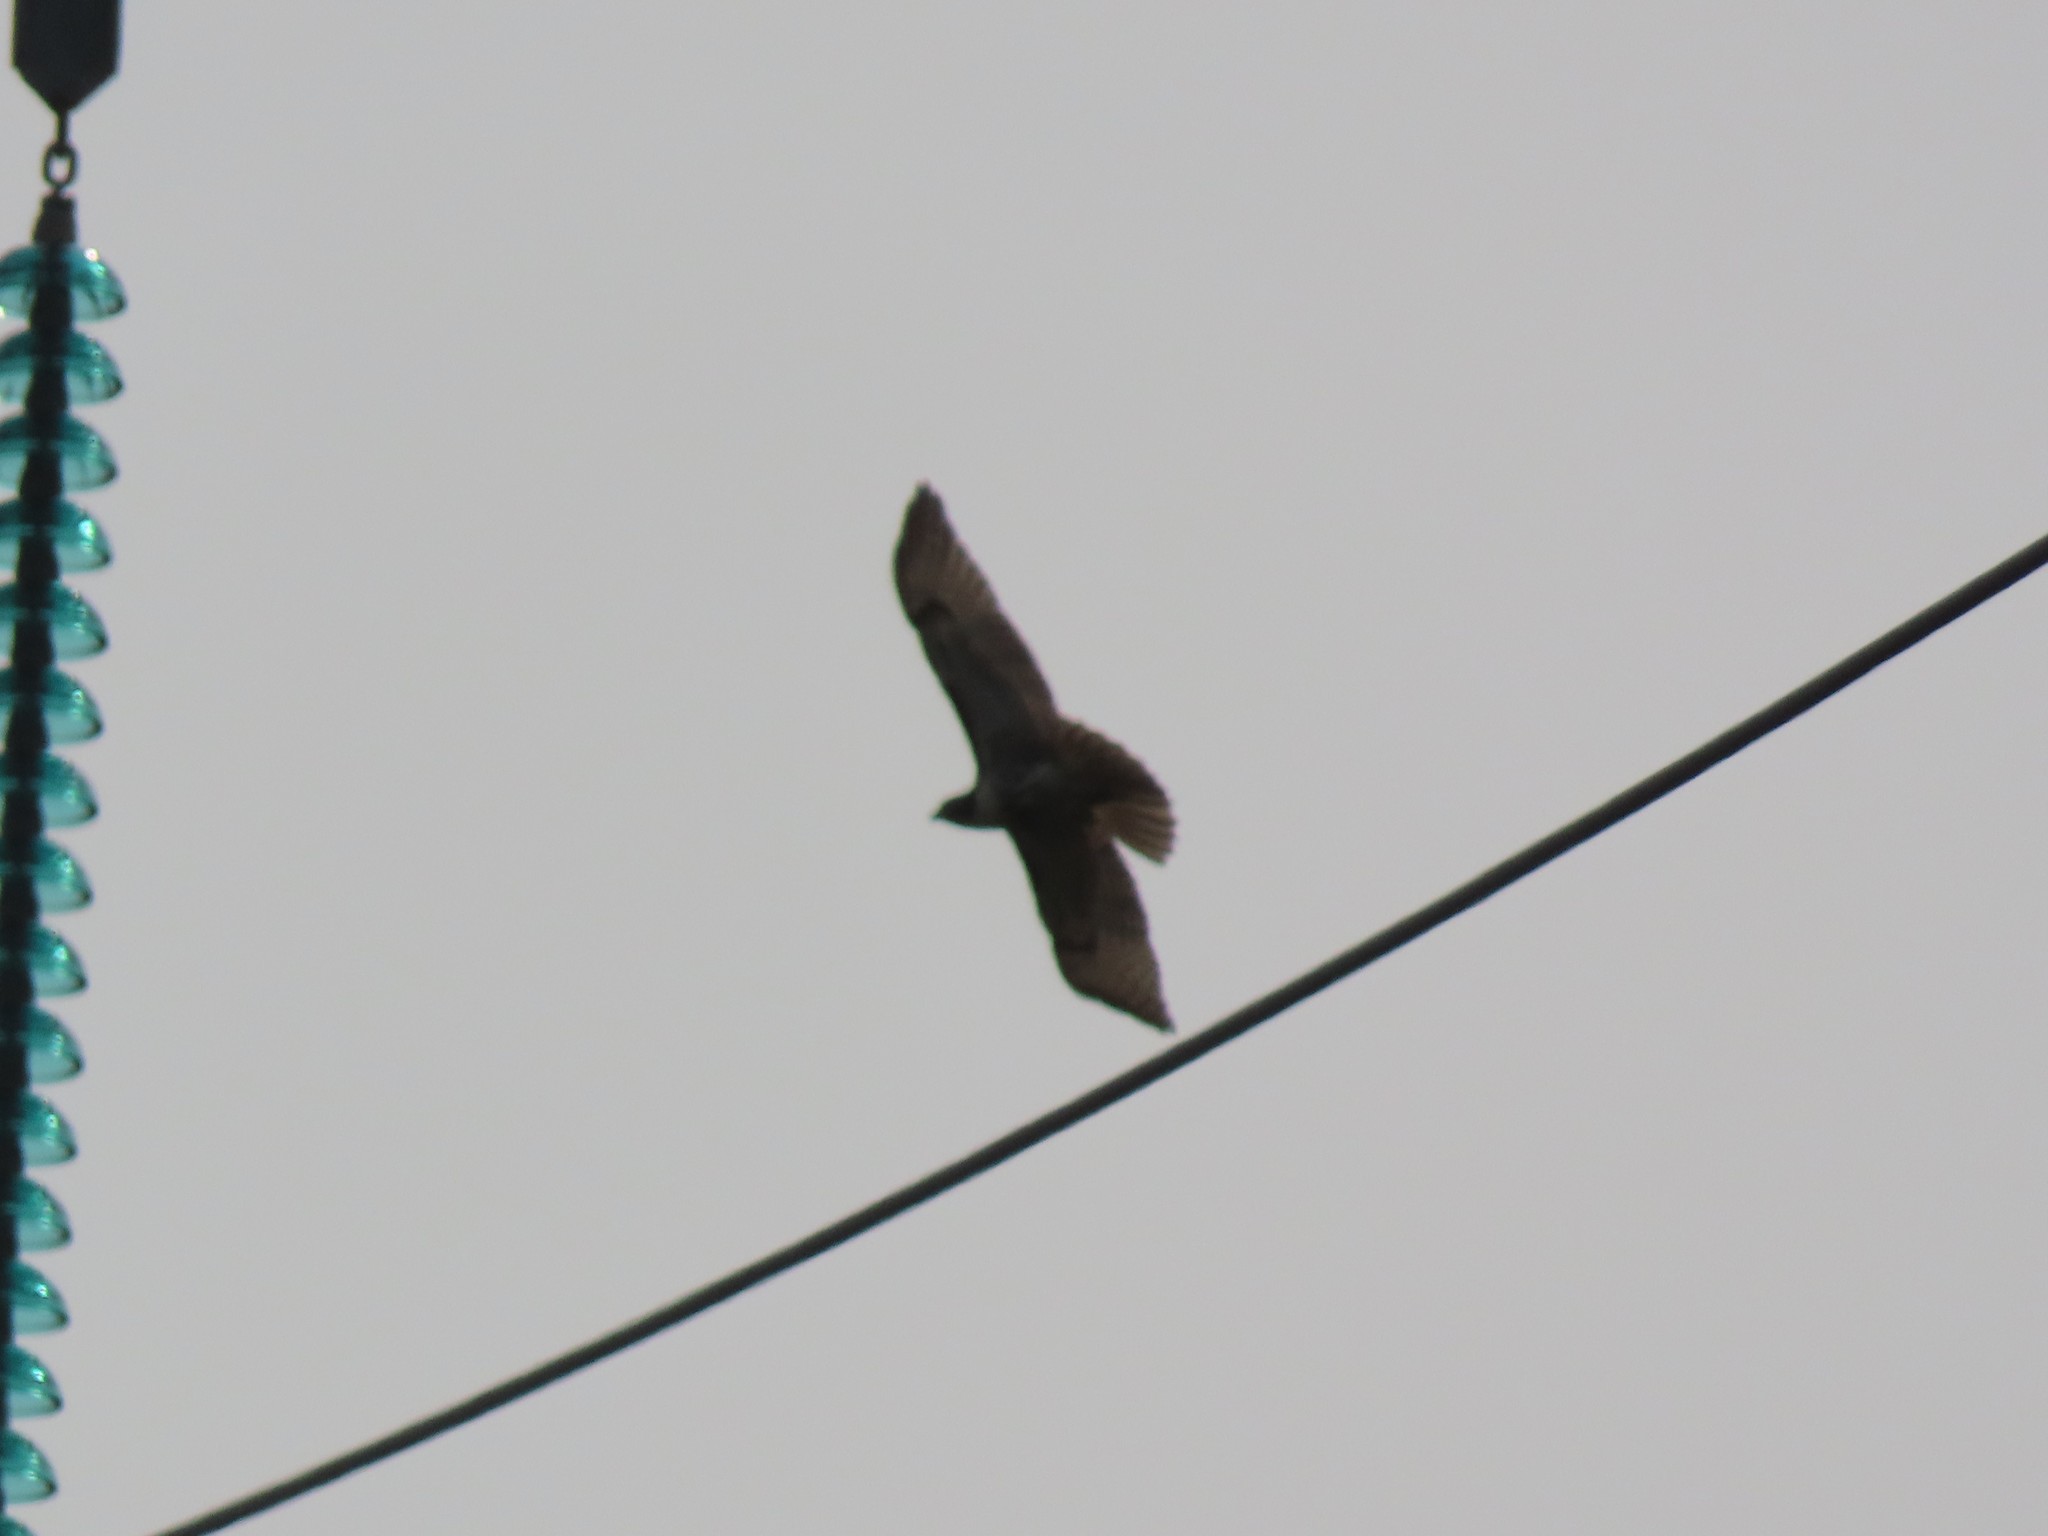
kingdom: Animalia
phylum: Chordata
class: Aves
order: Accipitriformes
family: Accipitridae
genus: Buteo
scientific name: Buteo jamaicensis
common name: Red-tailed hawk
